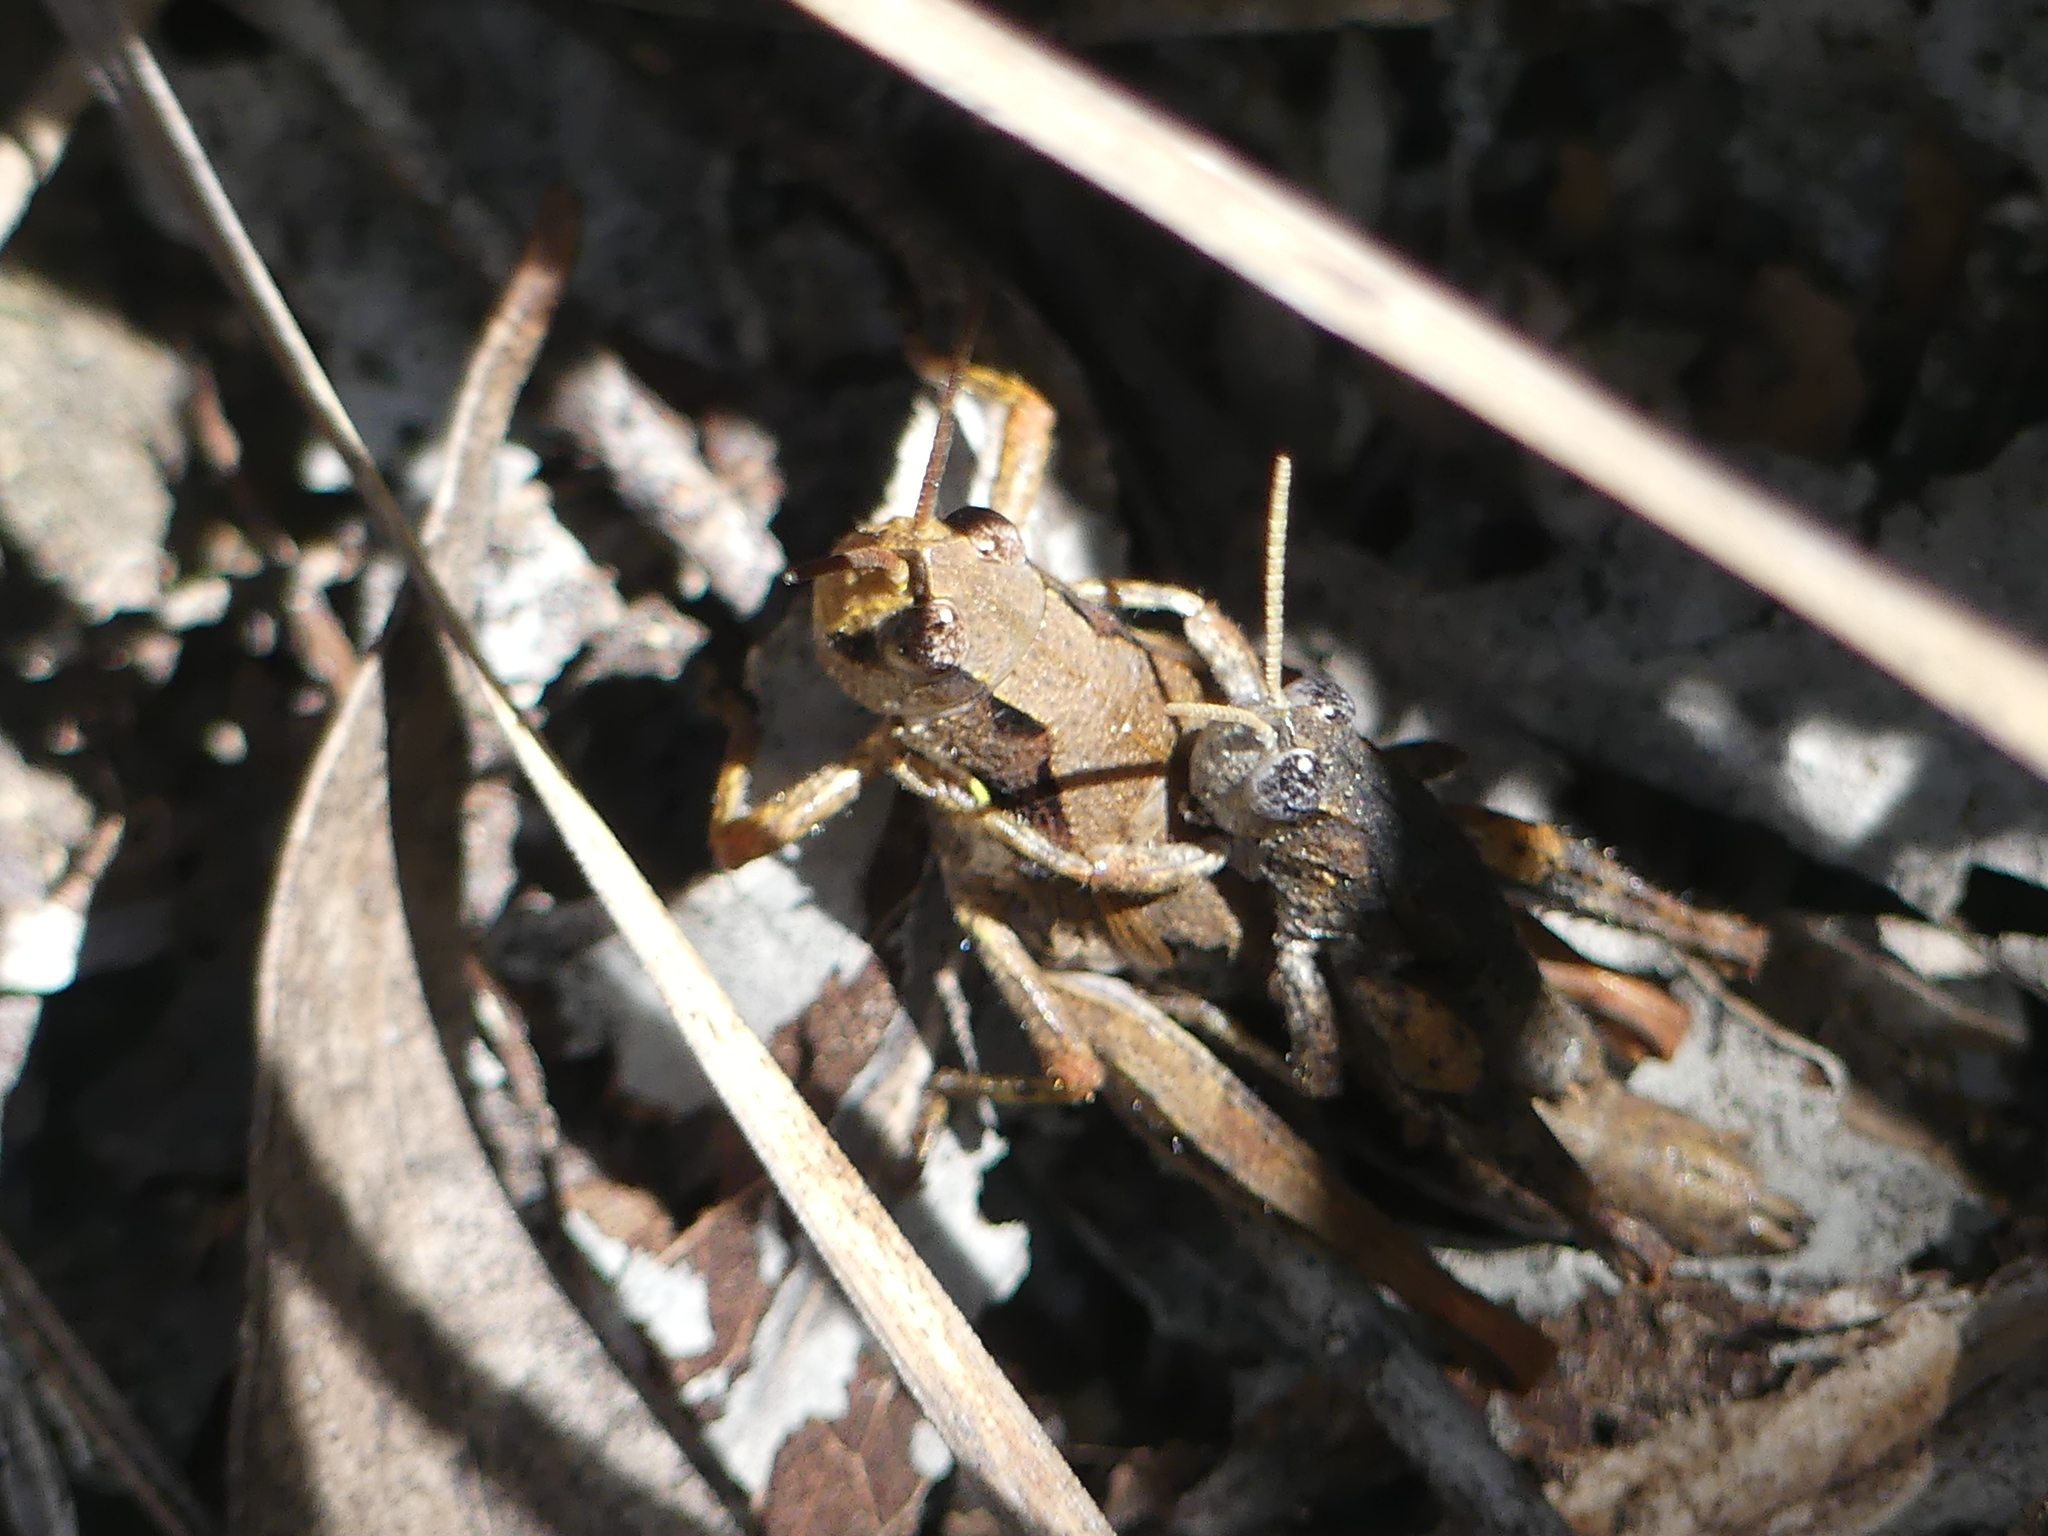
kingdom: Animalia
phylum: Arthropoda
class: Insecta
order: Orthoptera
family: Acrididae
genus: Tasmaniacris
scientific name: Tasmaniacris tasmaniensis
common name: Tasmanian grasshopper
